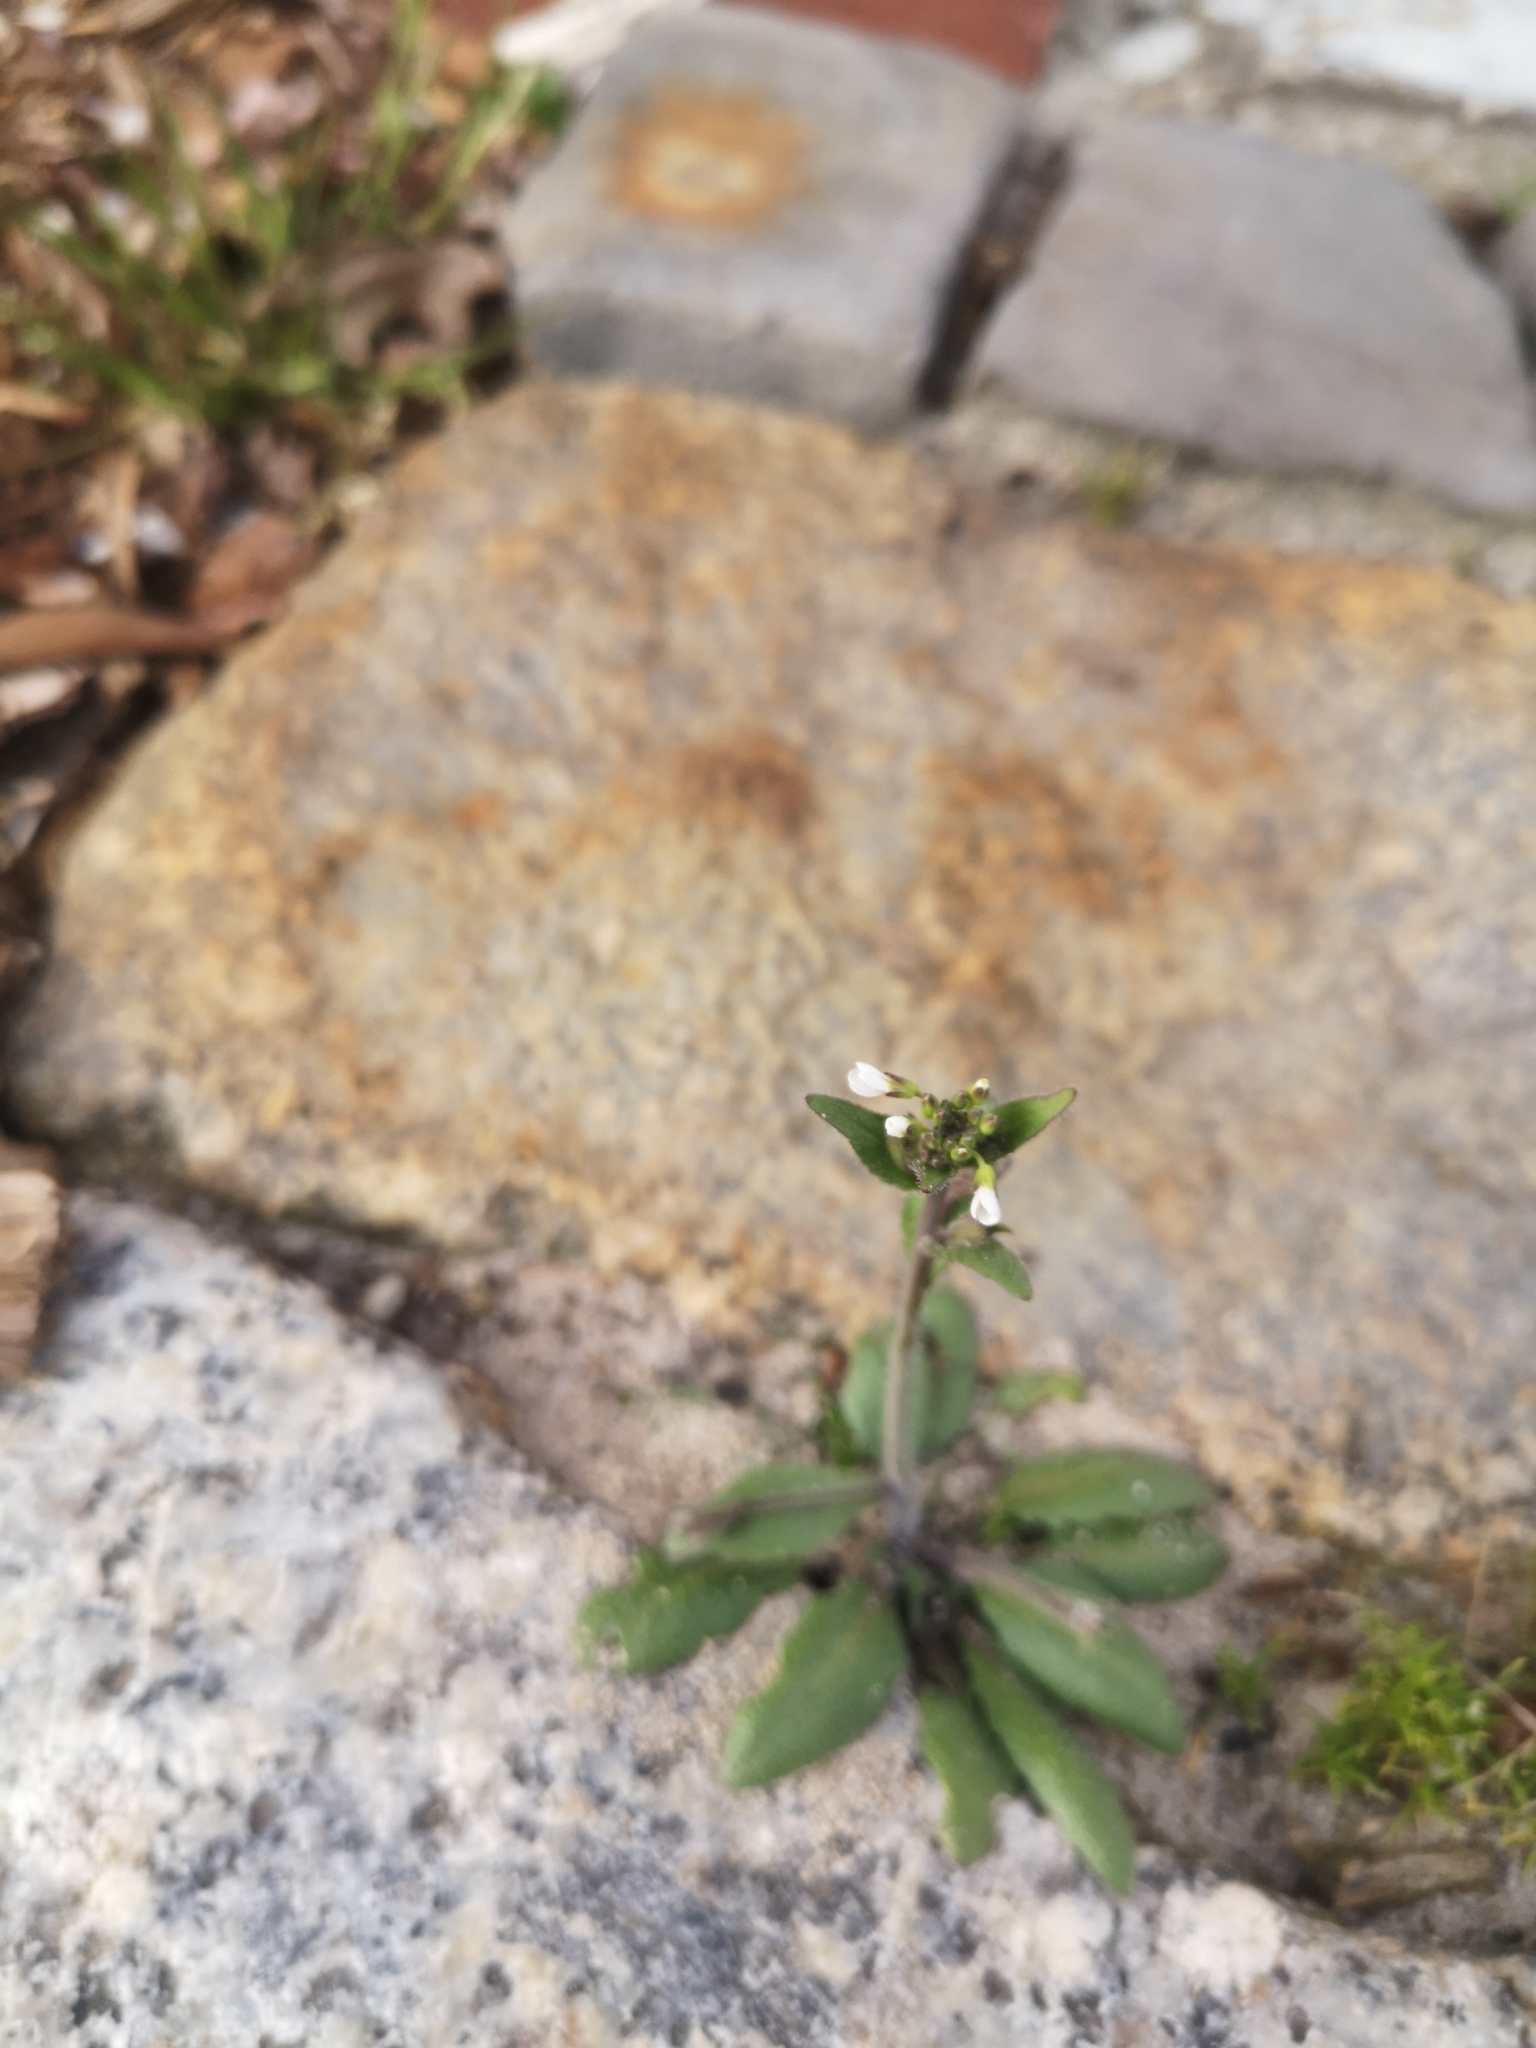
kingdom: Plantae
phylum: Tracheophyta
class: Magnoliopsida
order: Brassicales
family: Brassicaceae
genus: Arabidopsis
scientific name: Arabidopsis thaliana
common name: Thale cress
